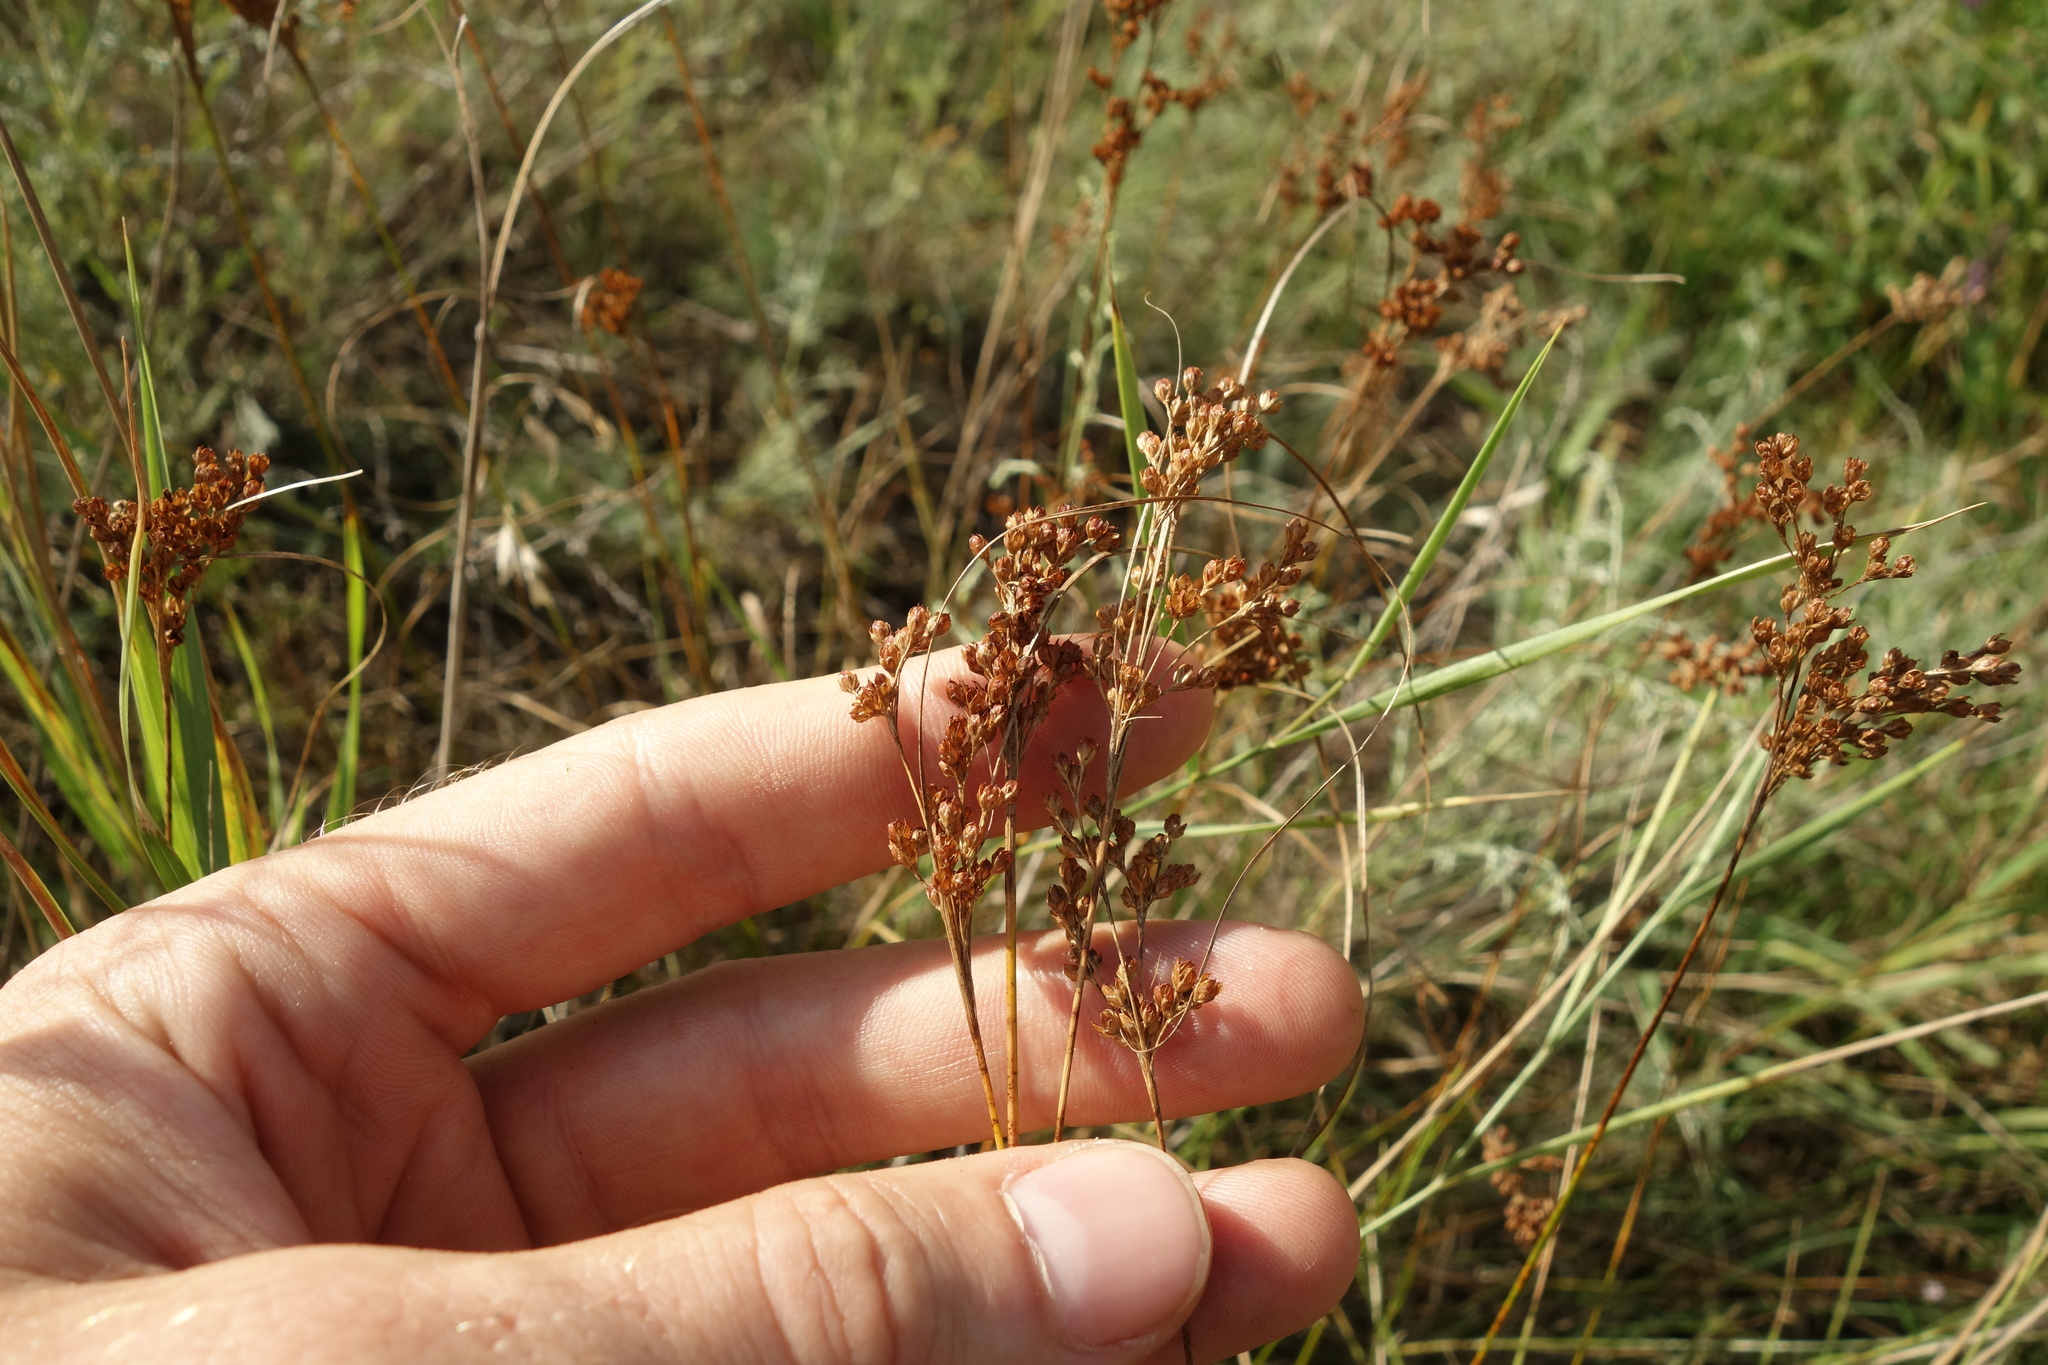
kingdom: Plantae
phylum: Tracheophyta
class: Liliopsida
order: Poales
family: Juncaceae
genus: Juncus
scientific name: Juncus compressus
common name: Round-fruited rush
